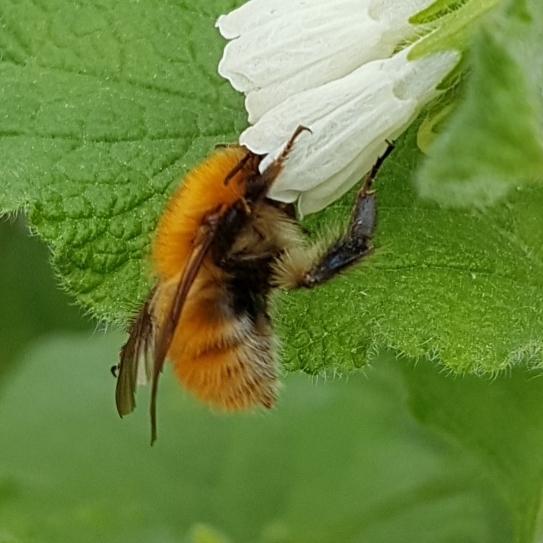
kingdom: Animalia
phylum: Arthropoda
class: Insecta
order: Hymenoptera
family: Apidae
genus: Bombus
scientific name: Bombus pascuorum
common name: Common carder bee
